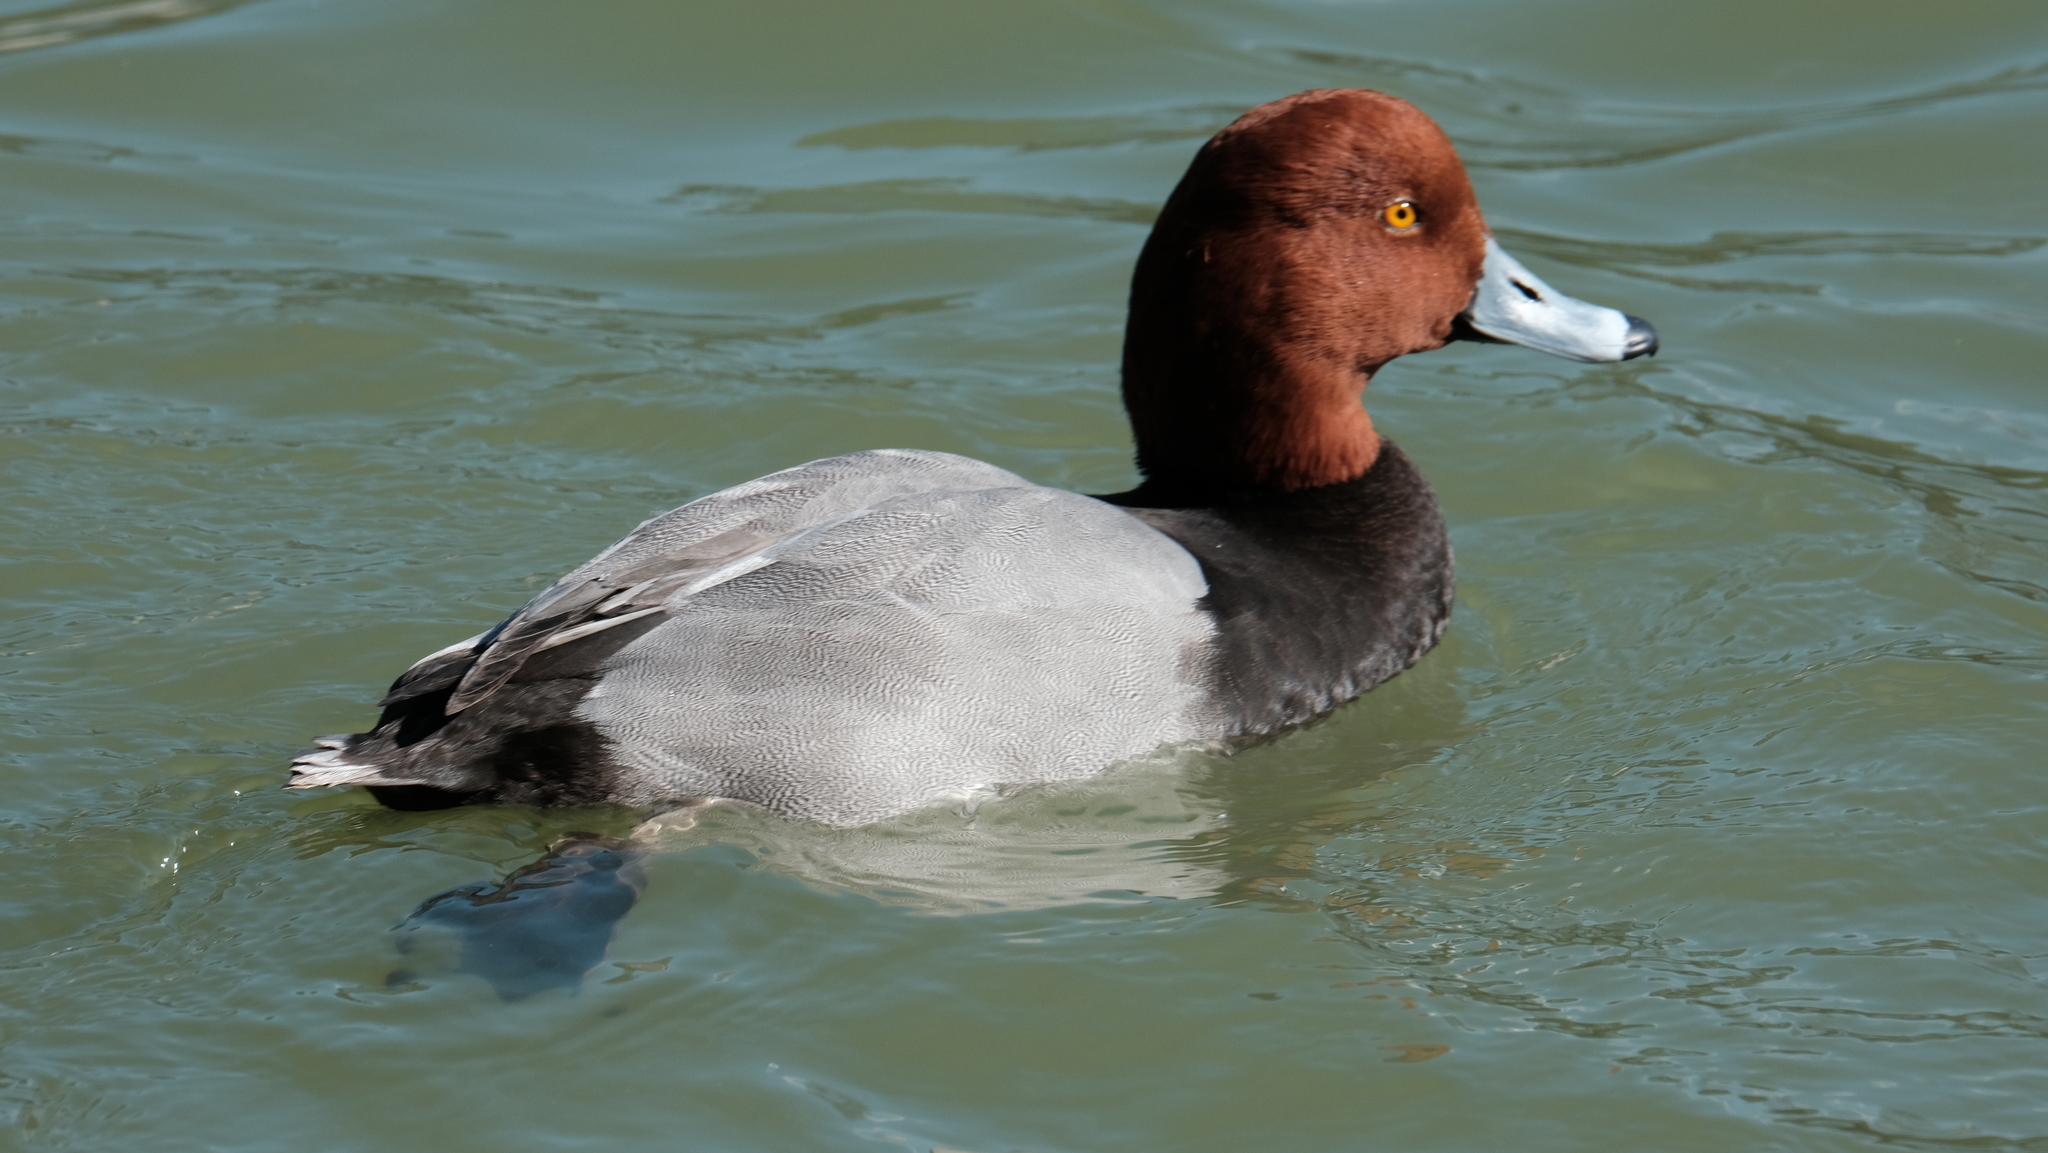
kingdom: Animalia
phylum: Chordata
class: Aves
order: Anseriformes
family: Anatidae
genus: Aythya
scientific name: Aythya americana
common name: Redhead
